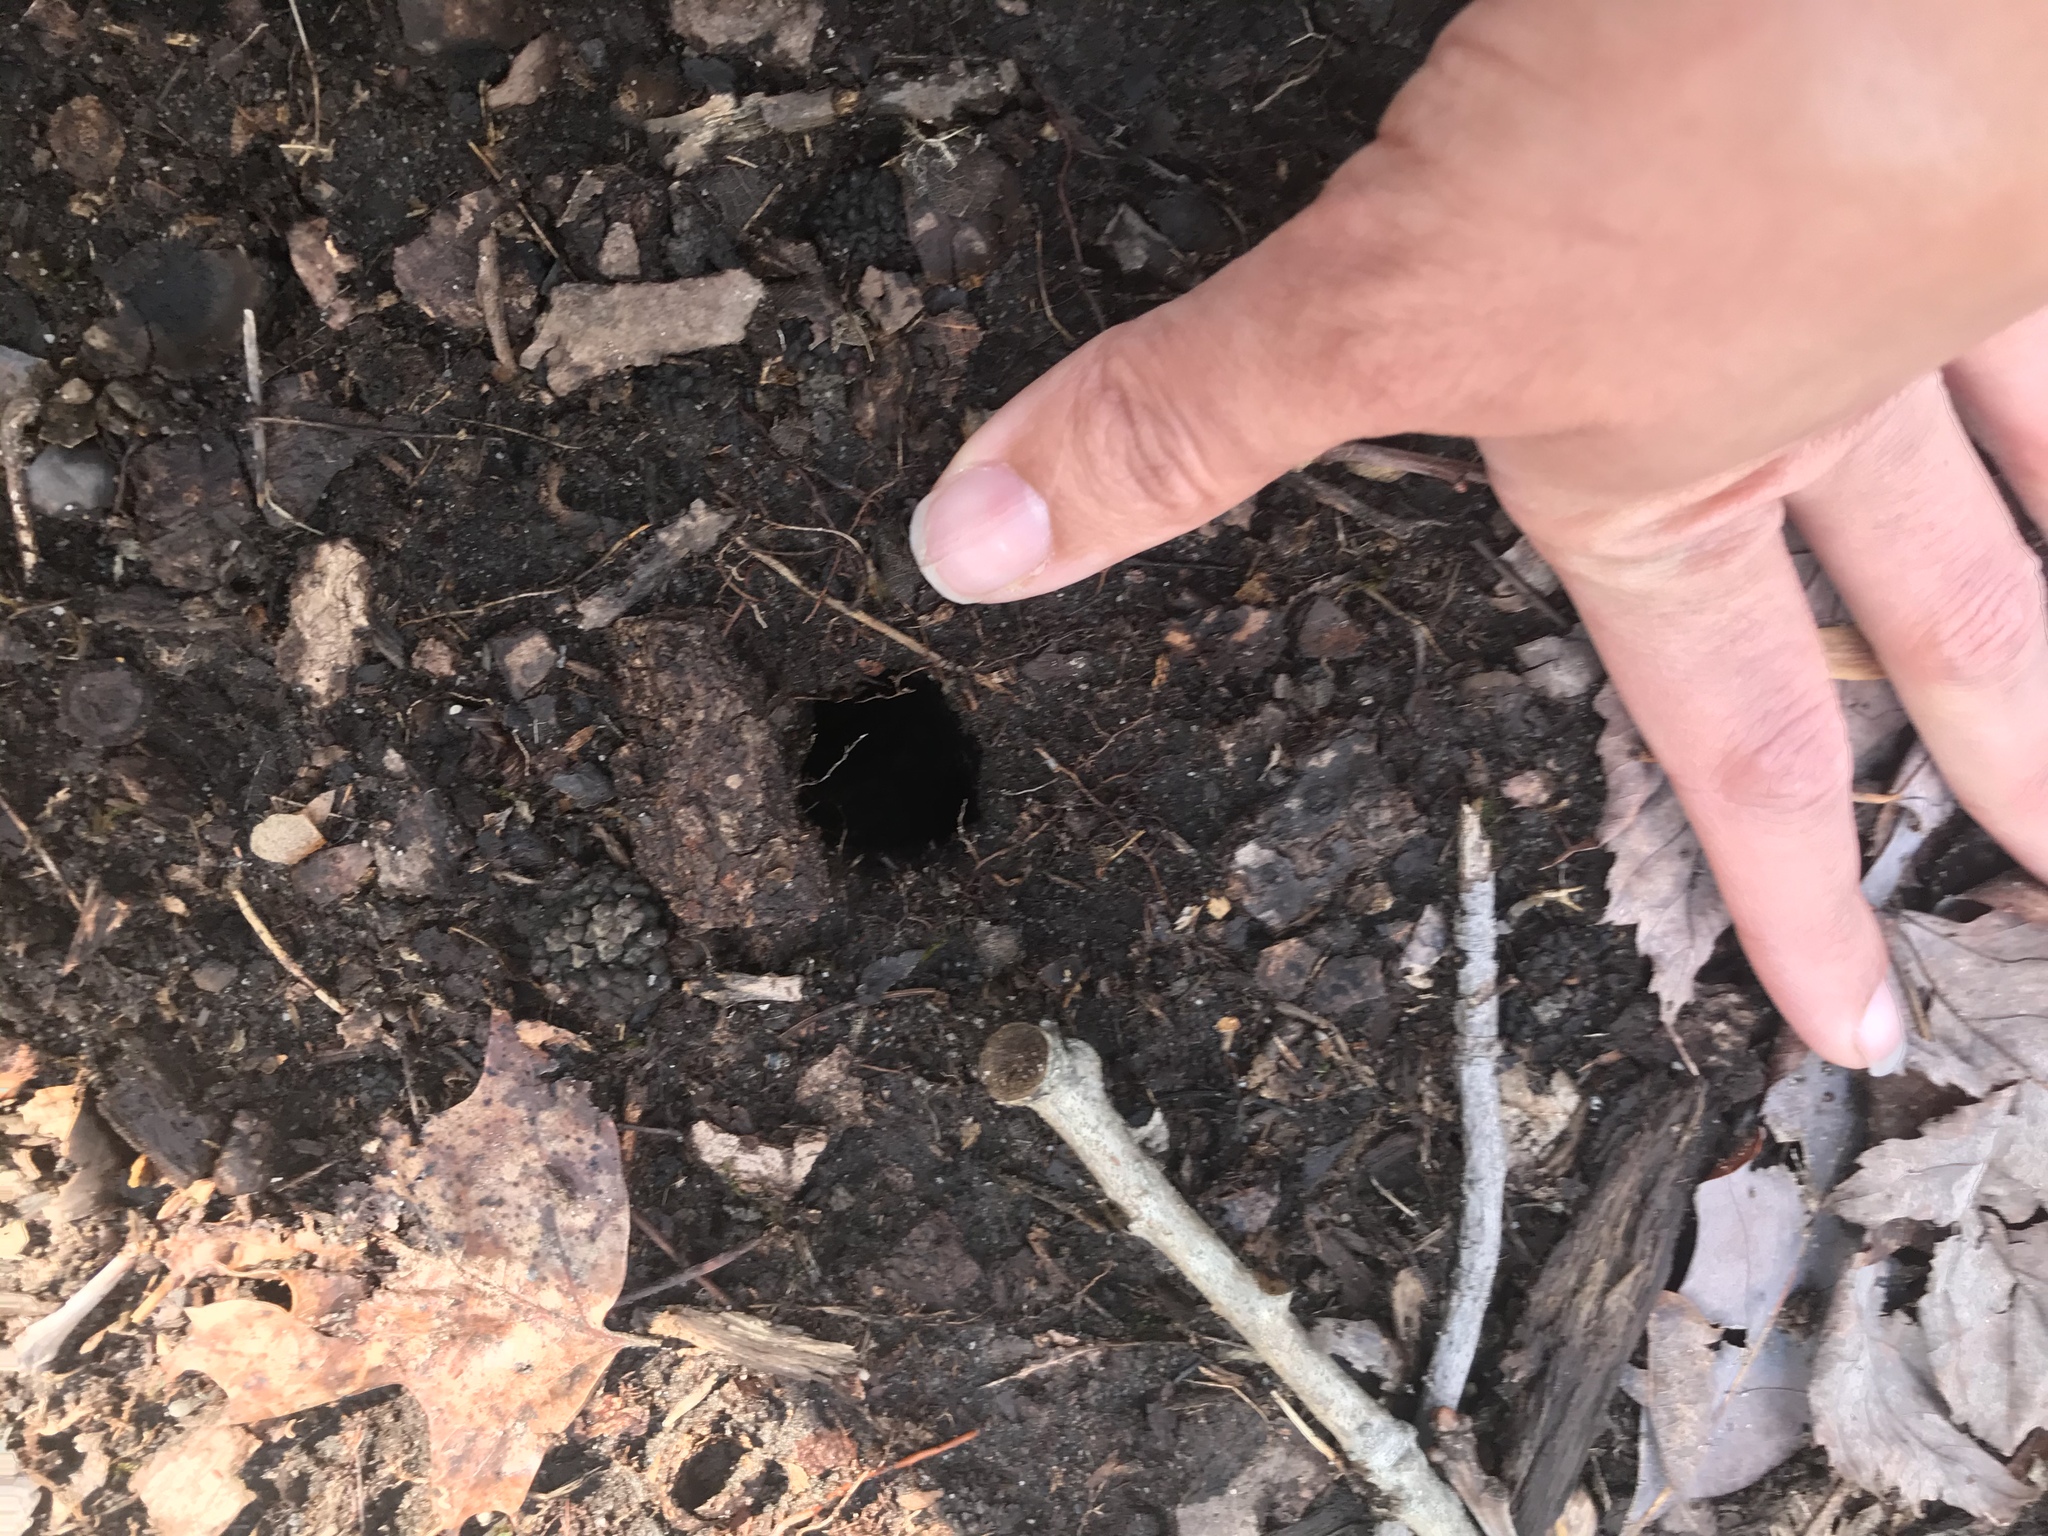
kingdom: Animalia
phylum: Chordata
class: Mammalia
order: Rodentia
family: Sciuridae
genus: Tamias
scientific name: Tamias striatus
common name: Eastern chipmunk
